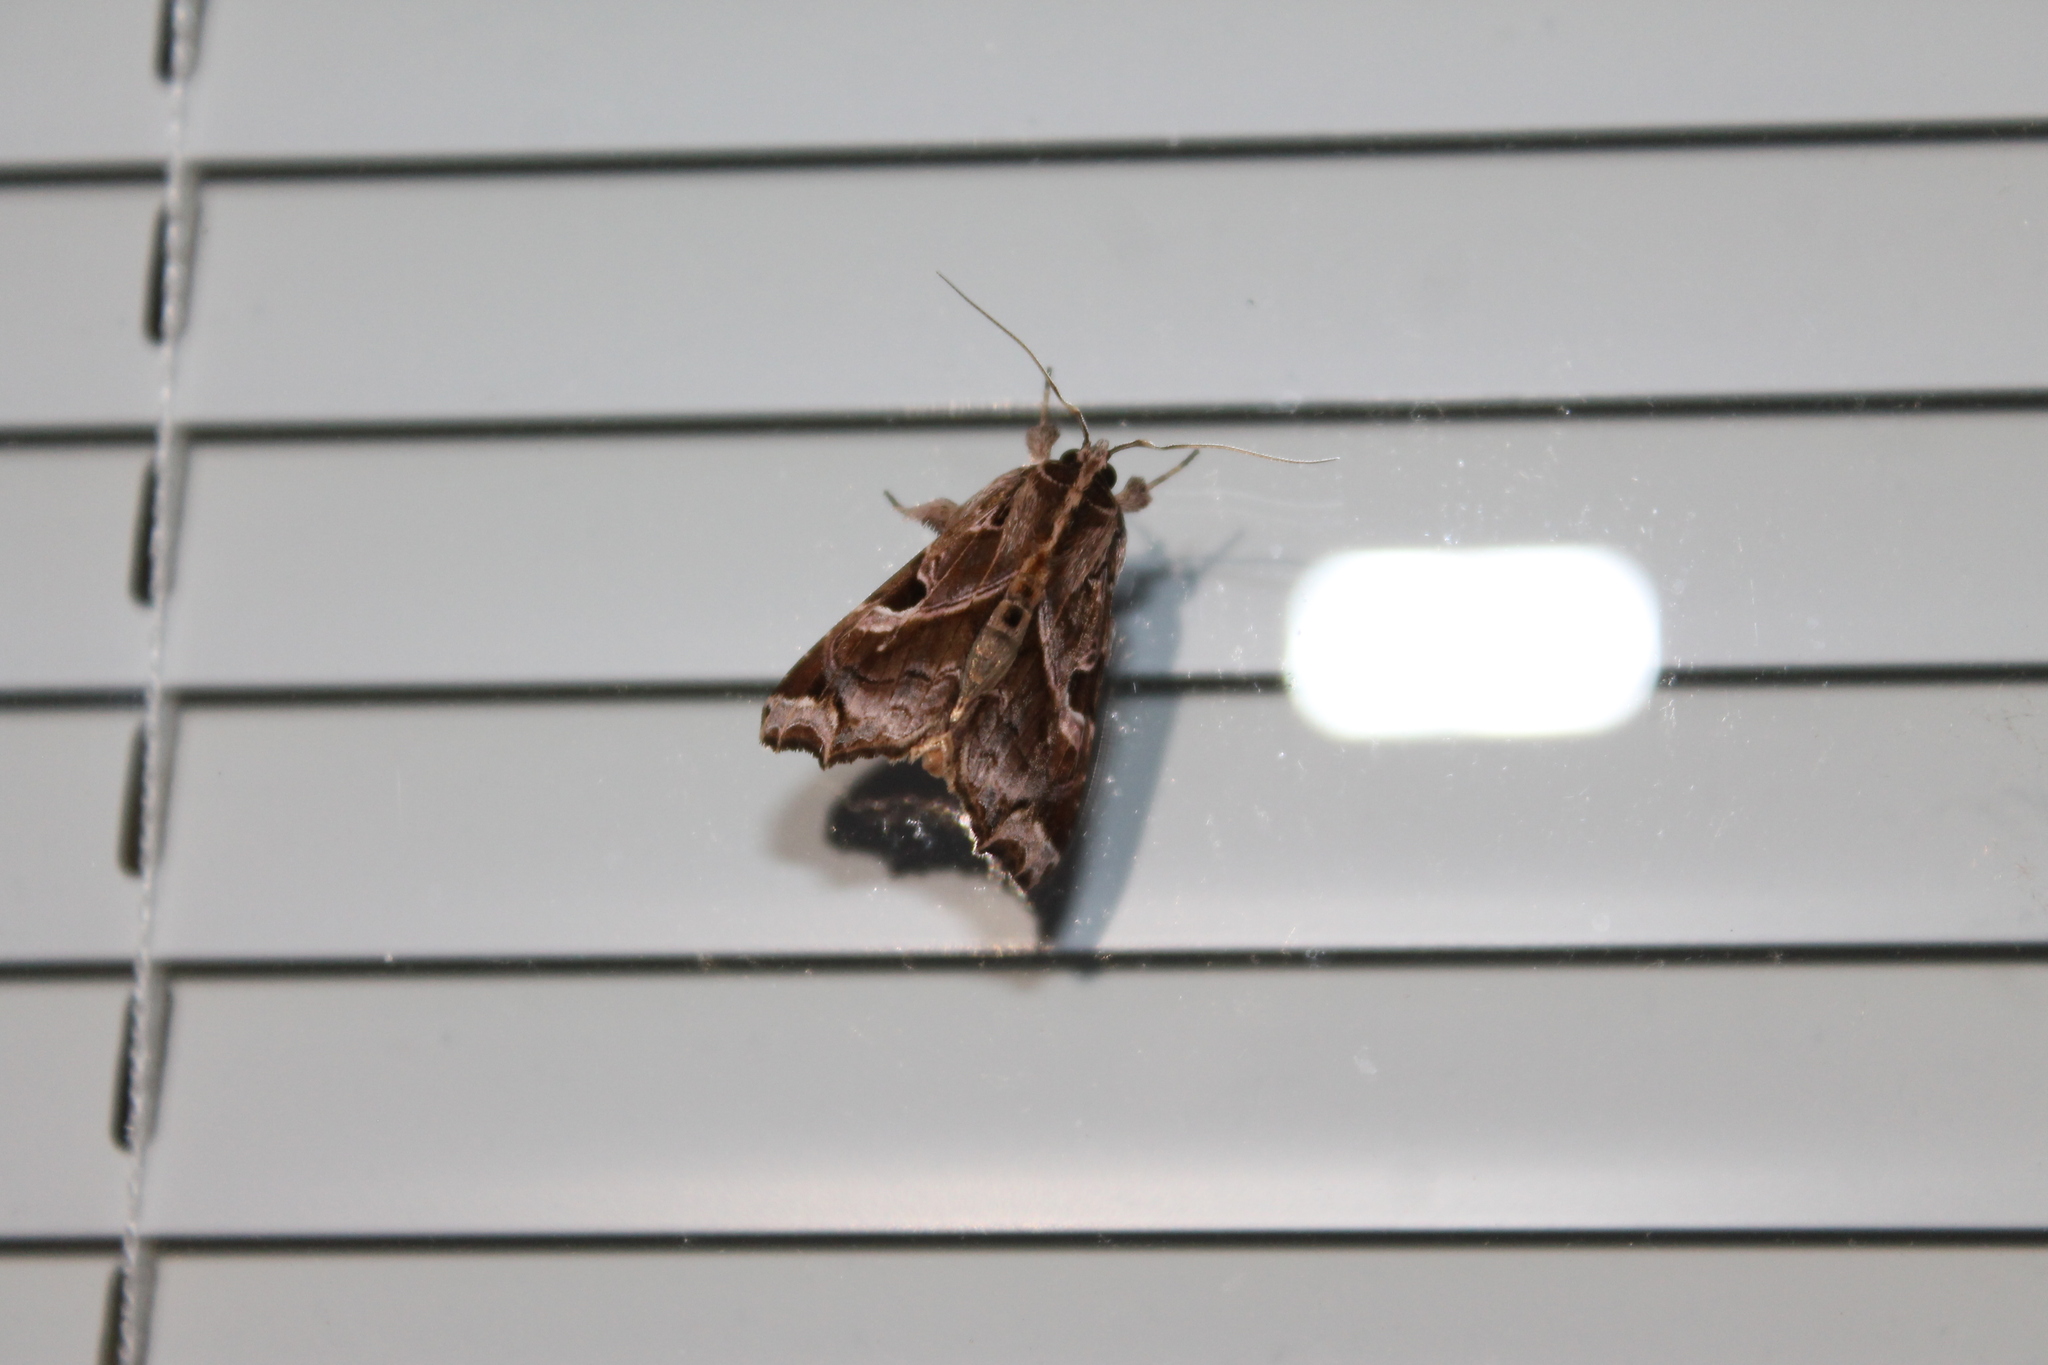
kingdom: Animalia
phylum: Arthropoda
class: Insecta
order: Lepidoptera
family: Noctuidae
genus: Callopistria
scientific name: Callopistria floridensis
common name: Florida fern moth
